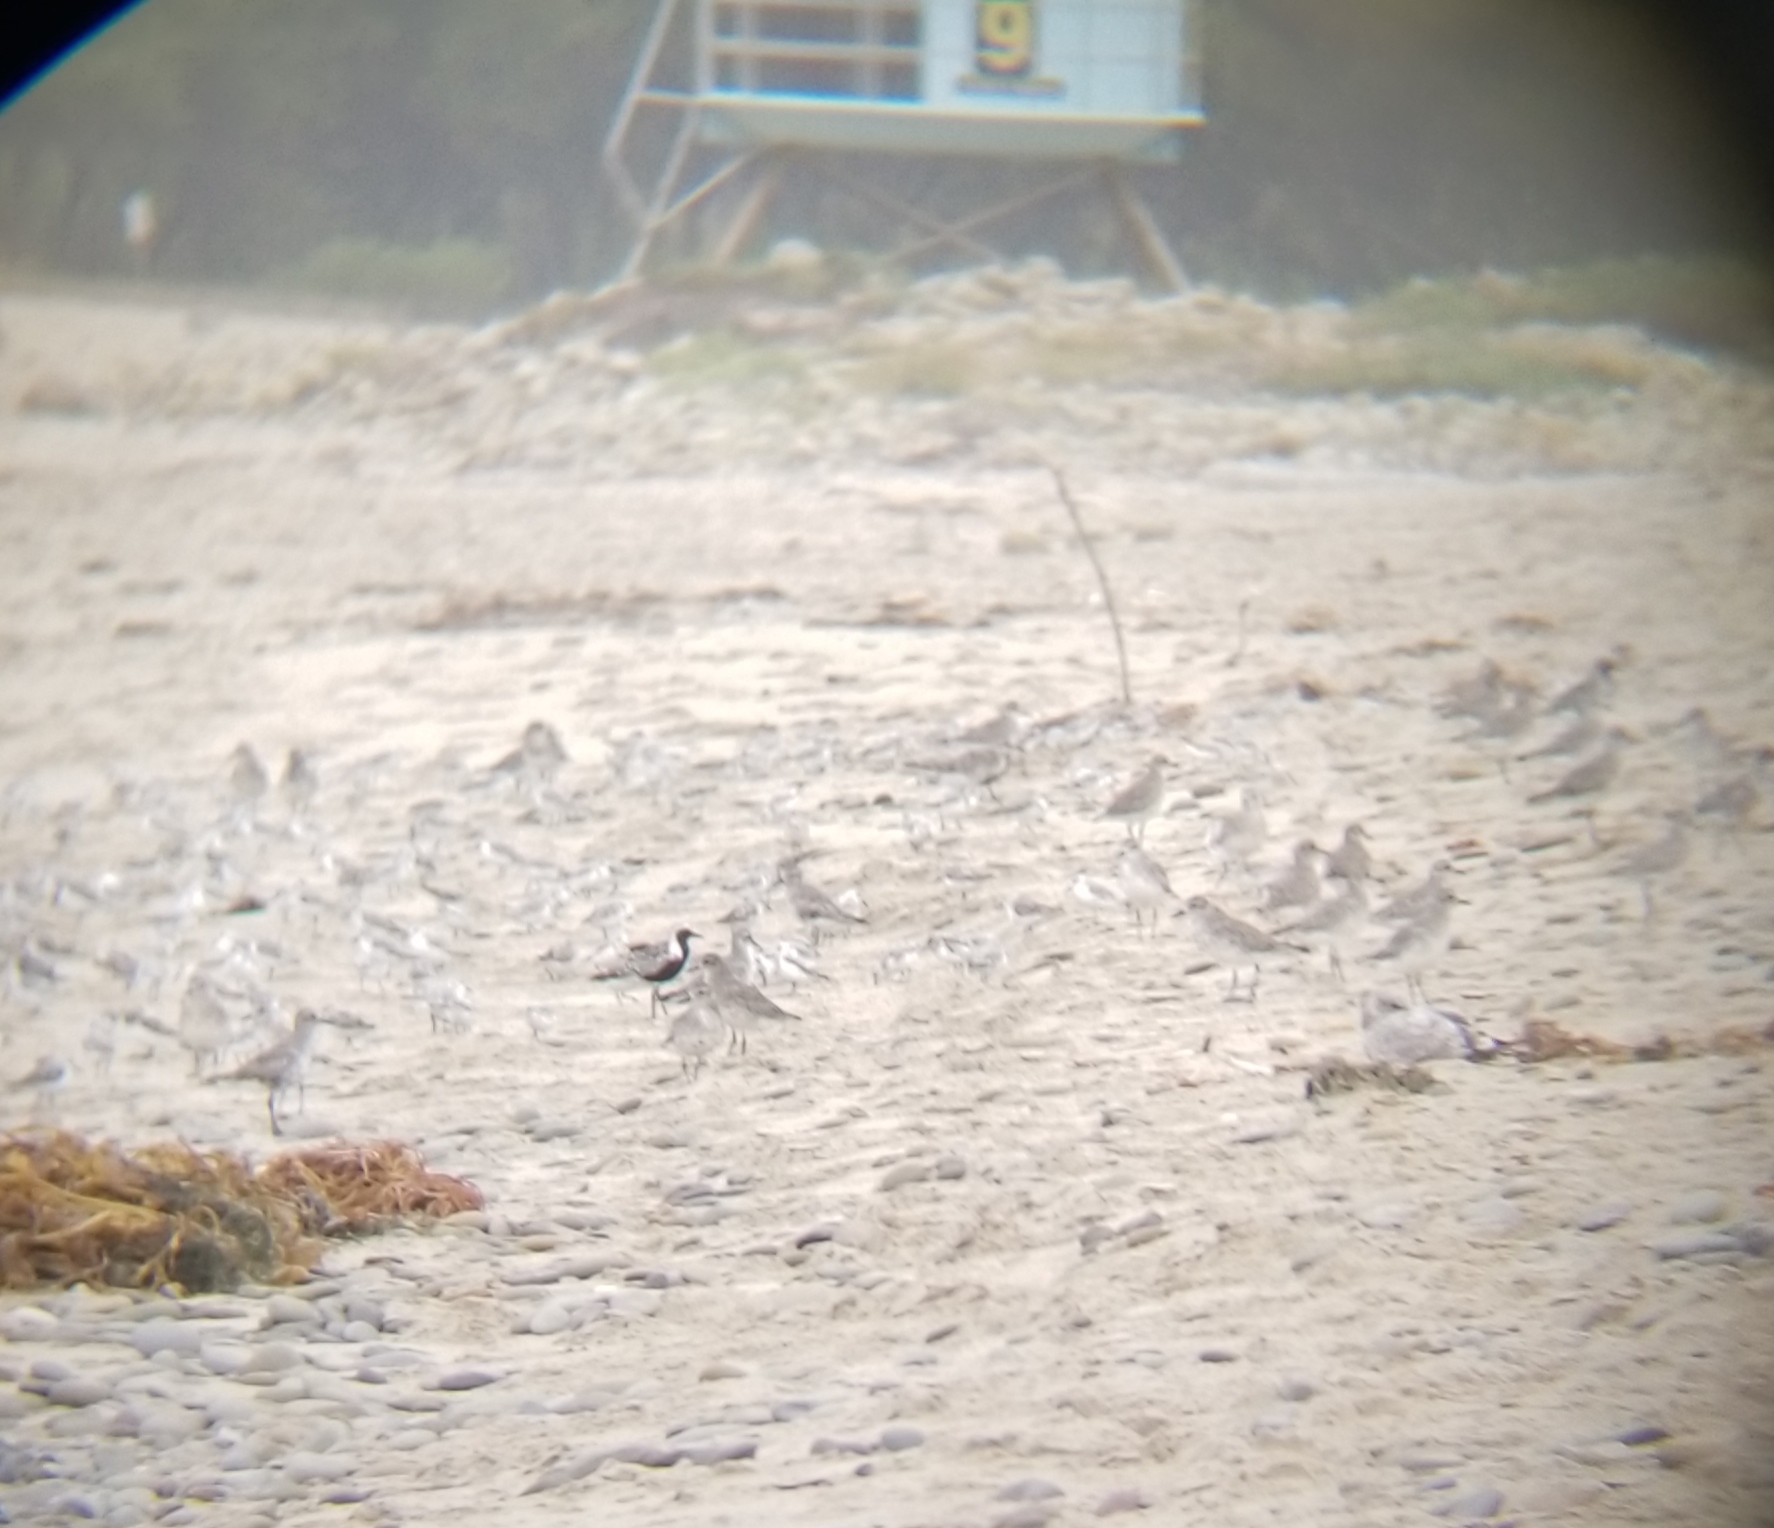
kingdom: Animalia
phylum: Chordata
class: Aves
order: Charadriiformes
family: Charadriidae
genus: Pluvialis
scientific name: Pluvialis squatarola
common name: Grey plover
